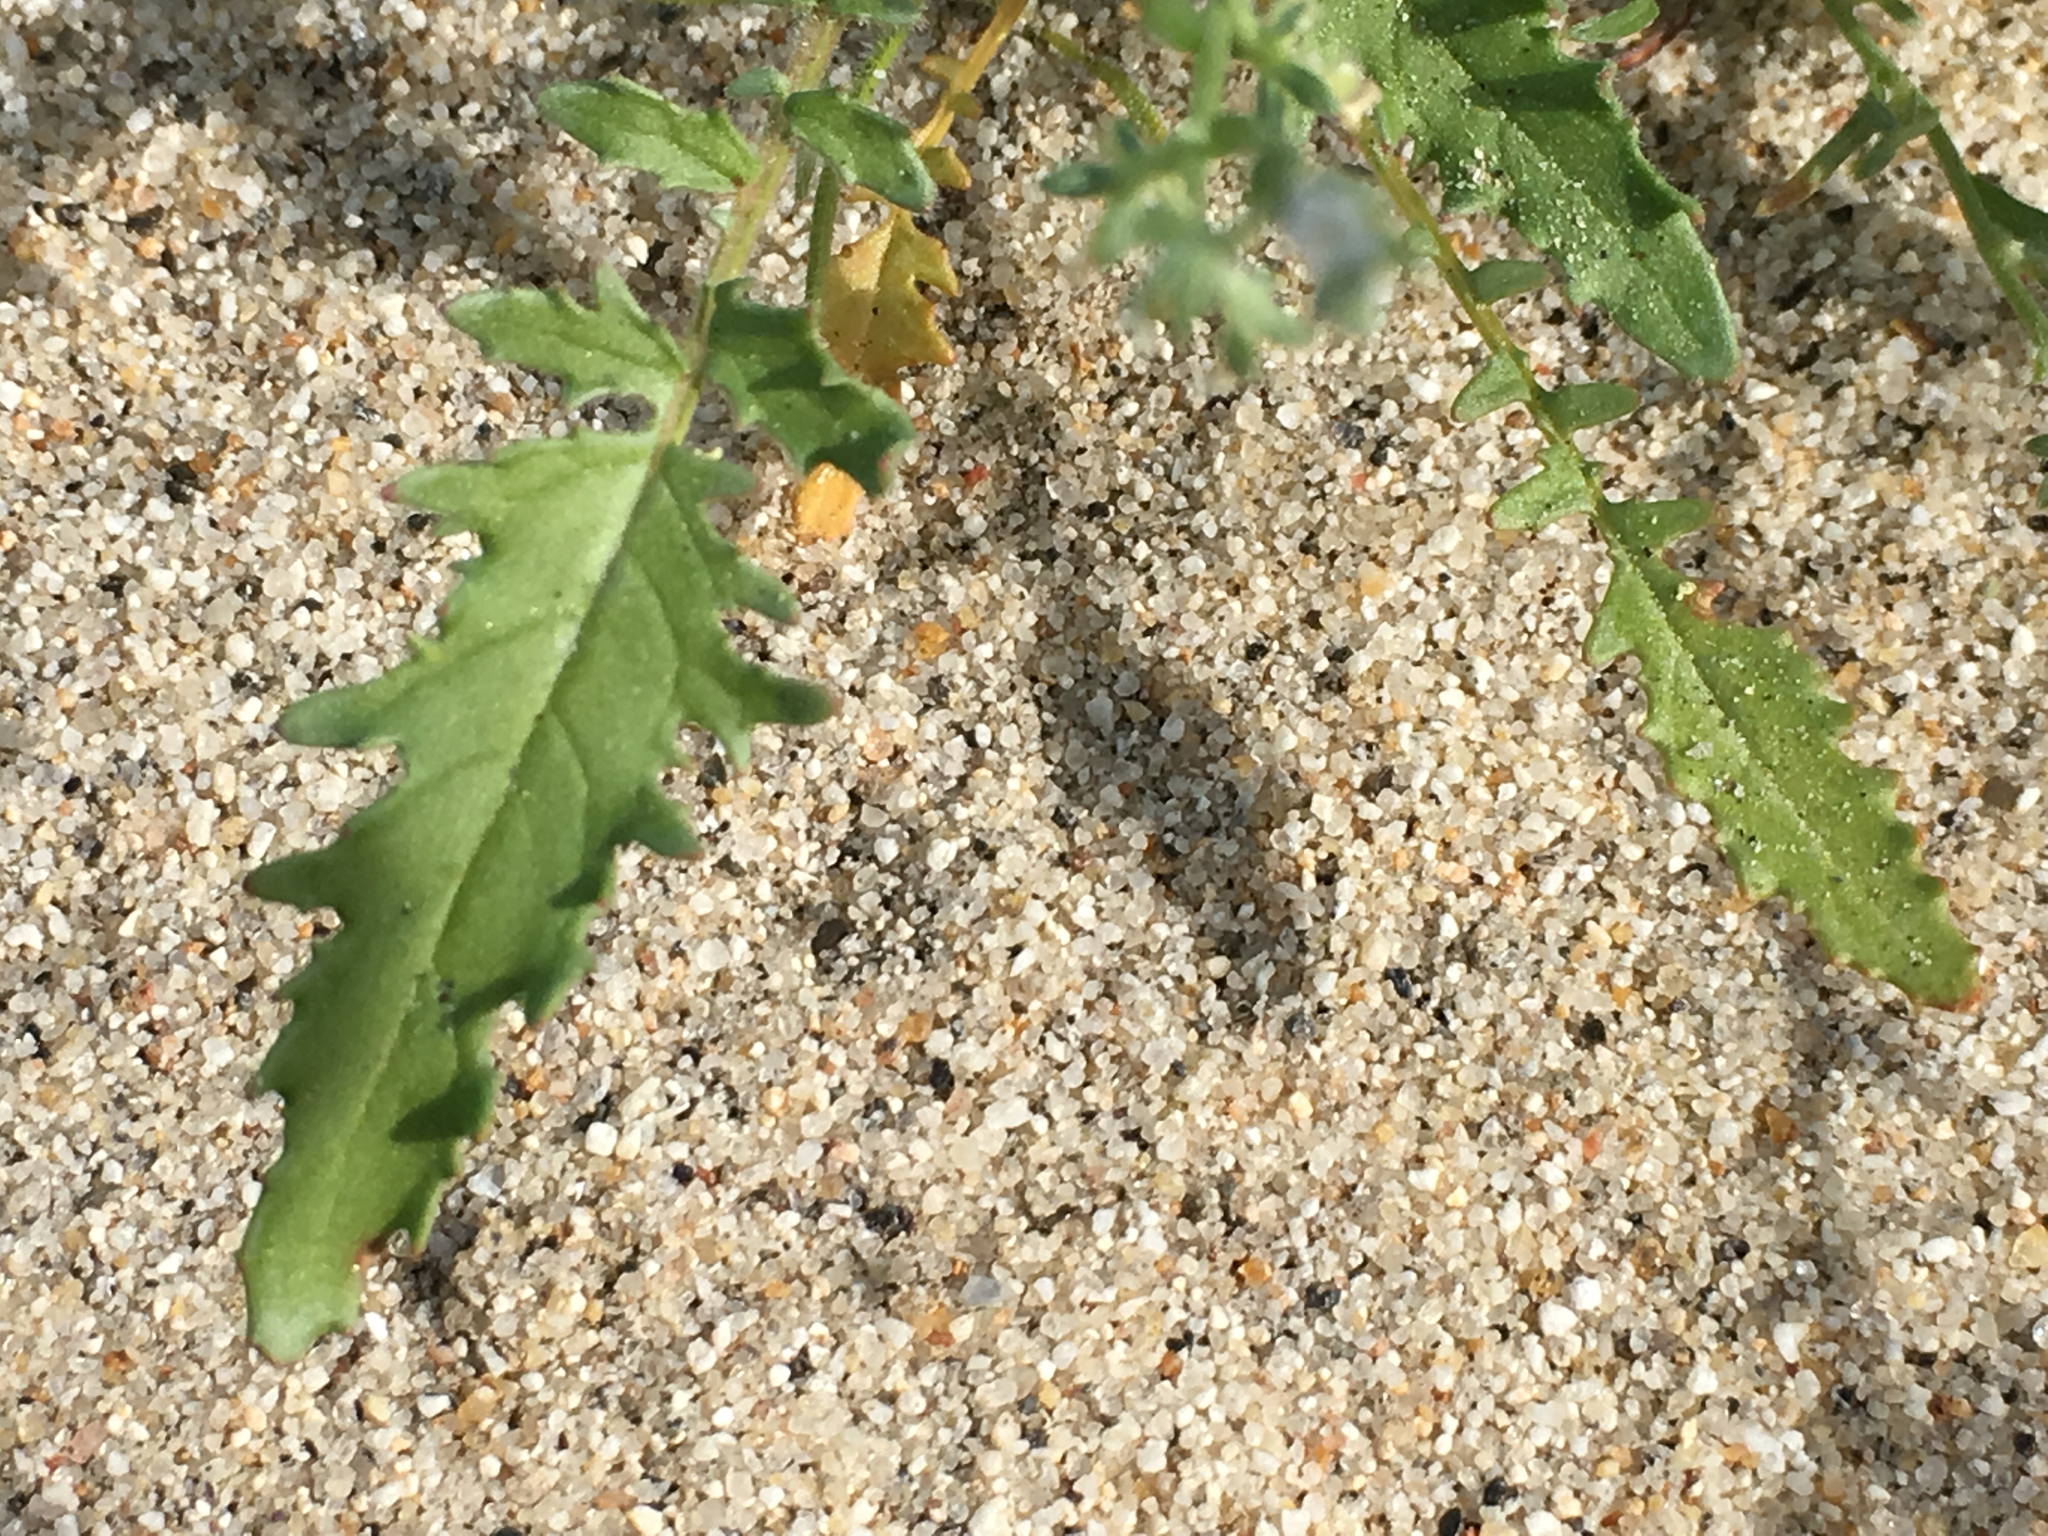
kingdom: Plantae
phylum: Tracheophyta
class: Magnoliopsida
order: Myrtales
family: Onagraceae
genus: Chylismia
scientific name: Chylismia claviformis
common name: Browneyes
